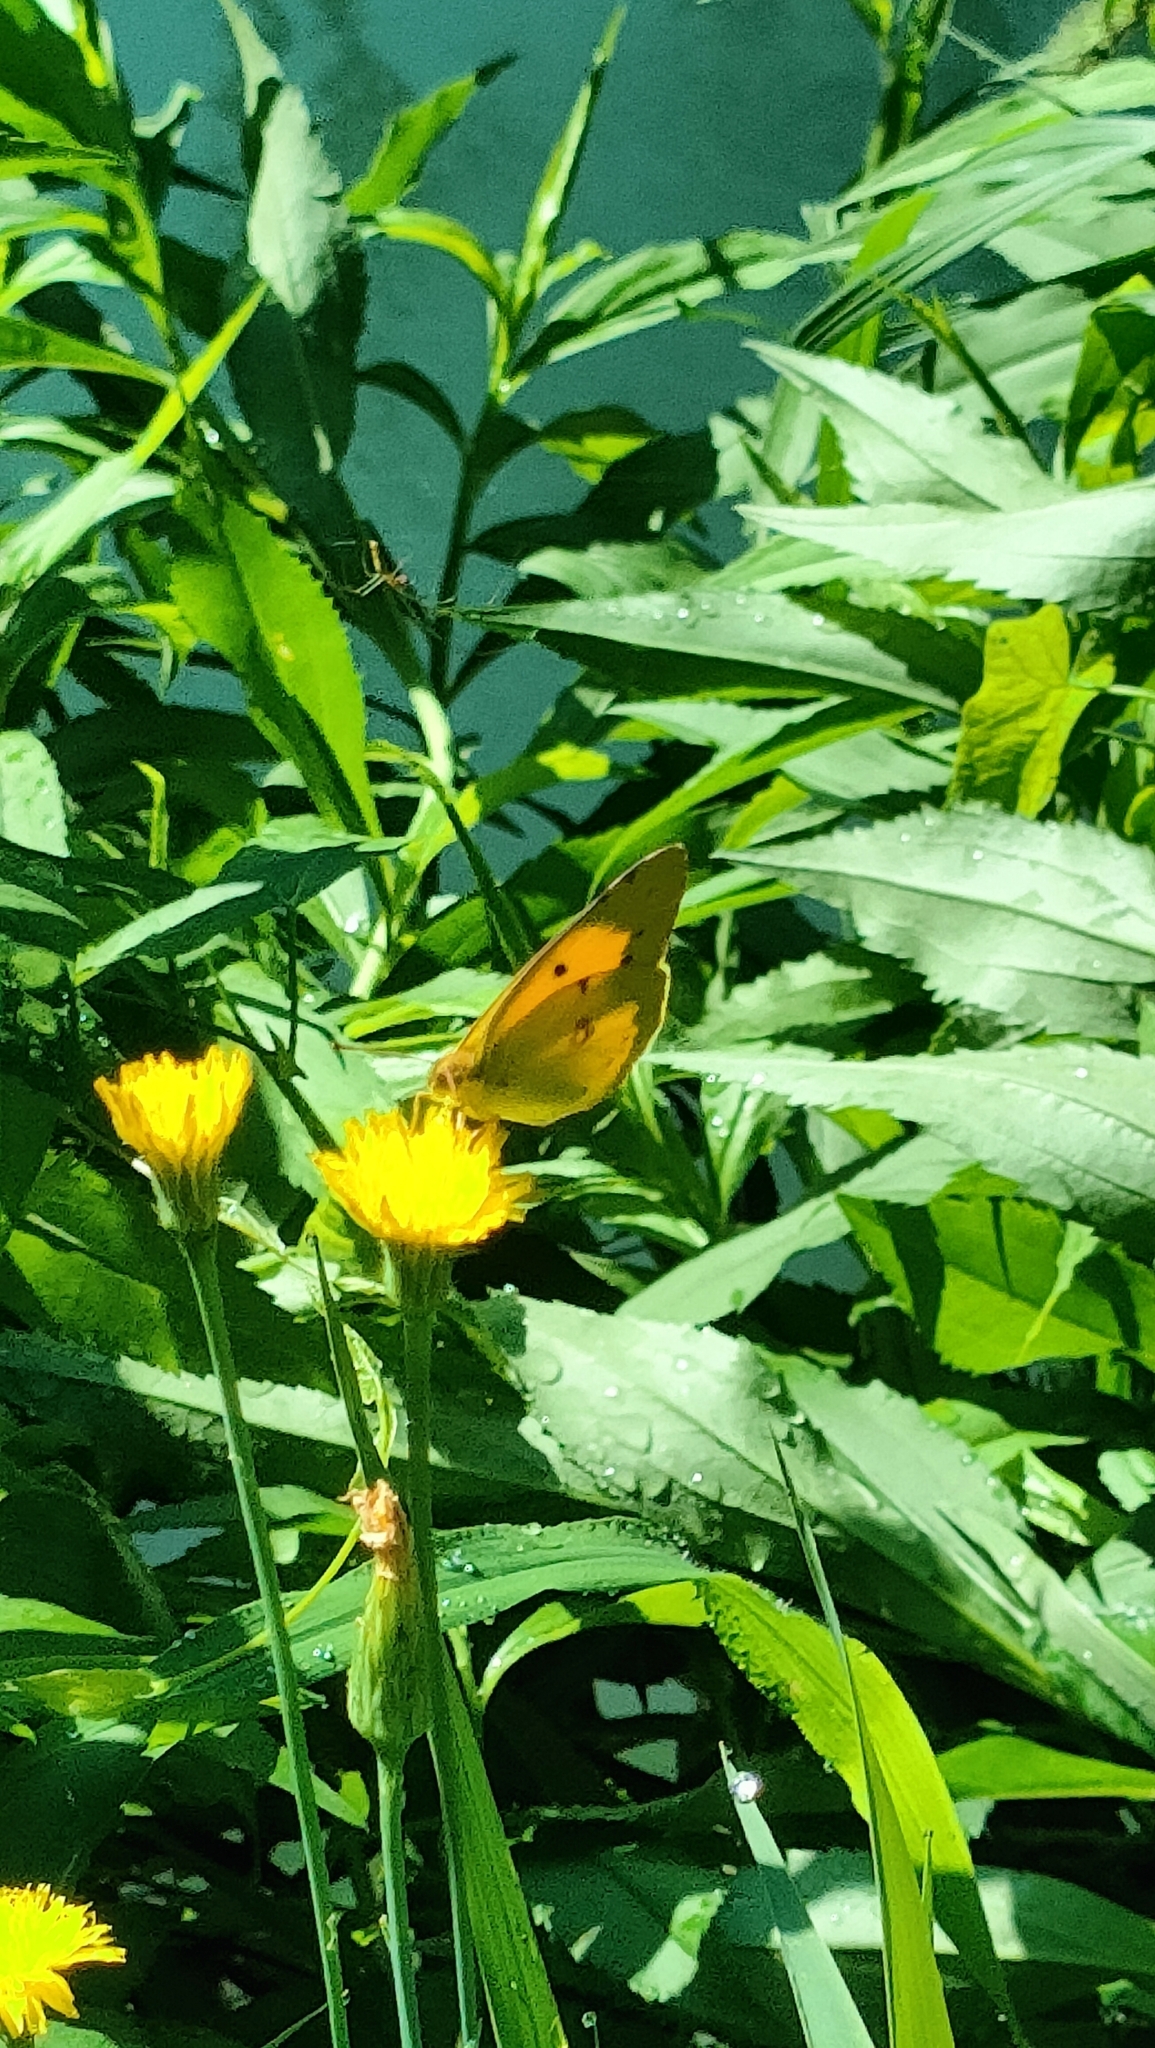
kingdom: Animalia
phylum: Arthropoda
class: Insecta
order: Lepidoptera
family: Pieridae
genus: Colias
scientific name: Colias croceus
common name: Clouded yellow
